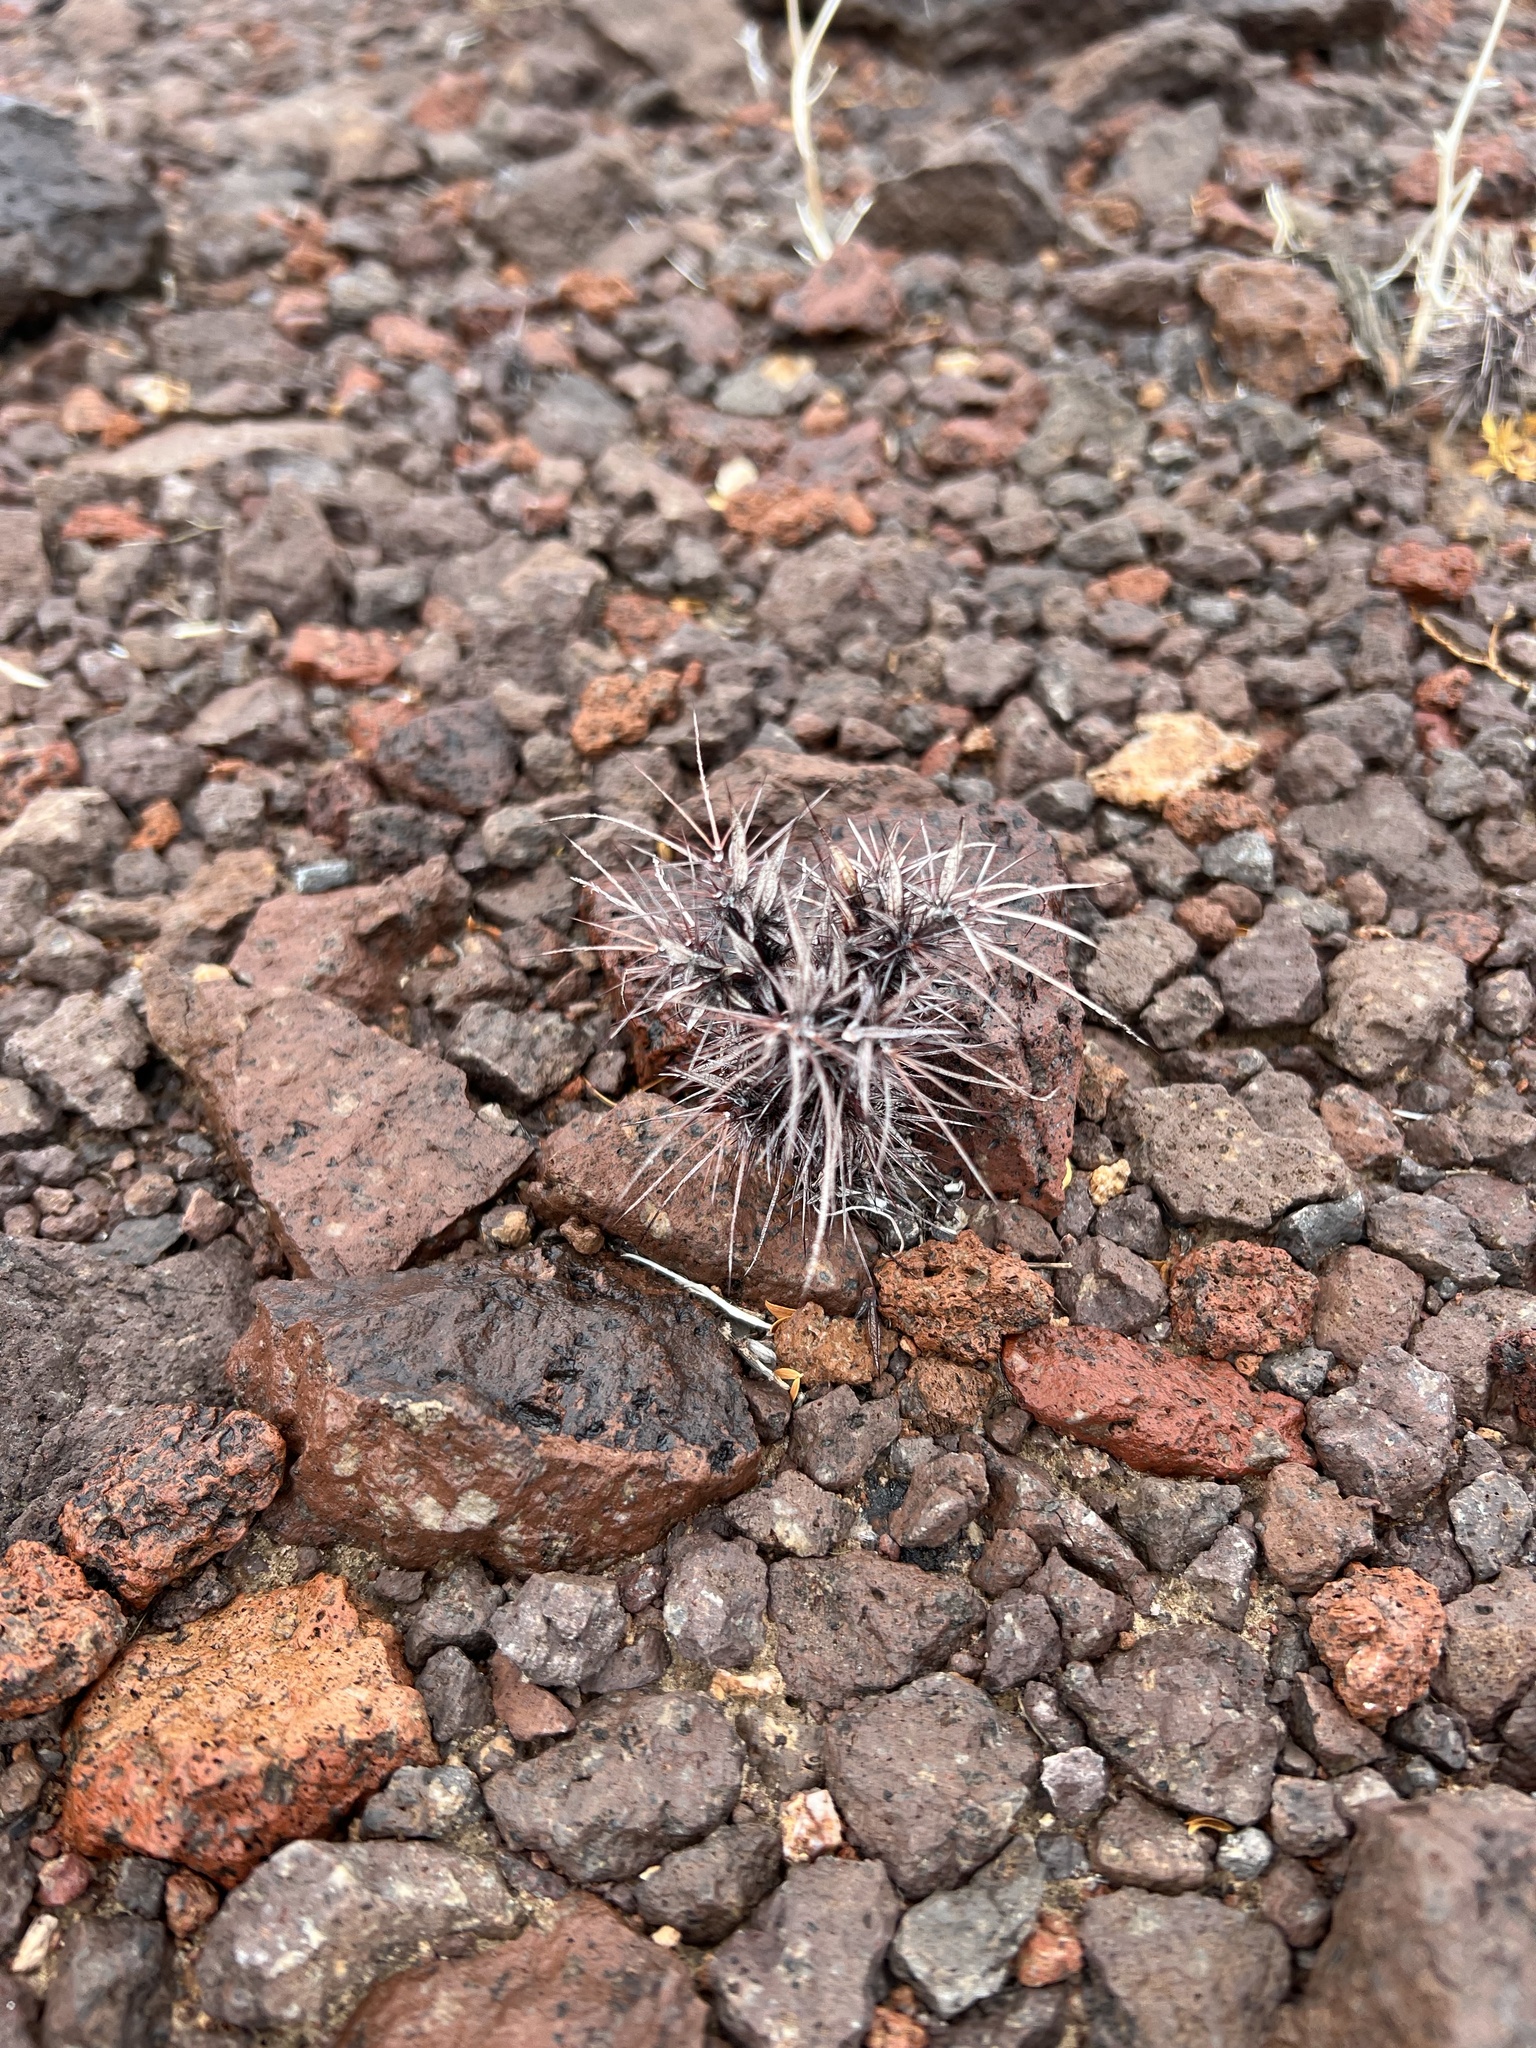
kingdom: Plantae
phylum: Tracheophyta
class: Magnoliopsida
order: Caryophyllales
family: Polygonaceae
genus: Chorizanthe
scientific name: Chorizanthe rigida
